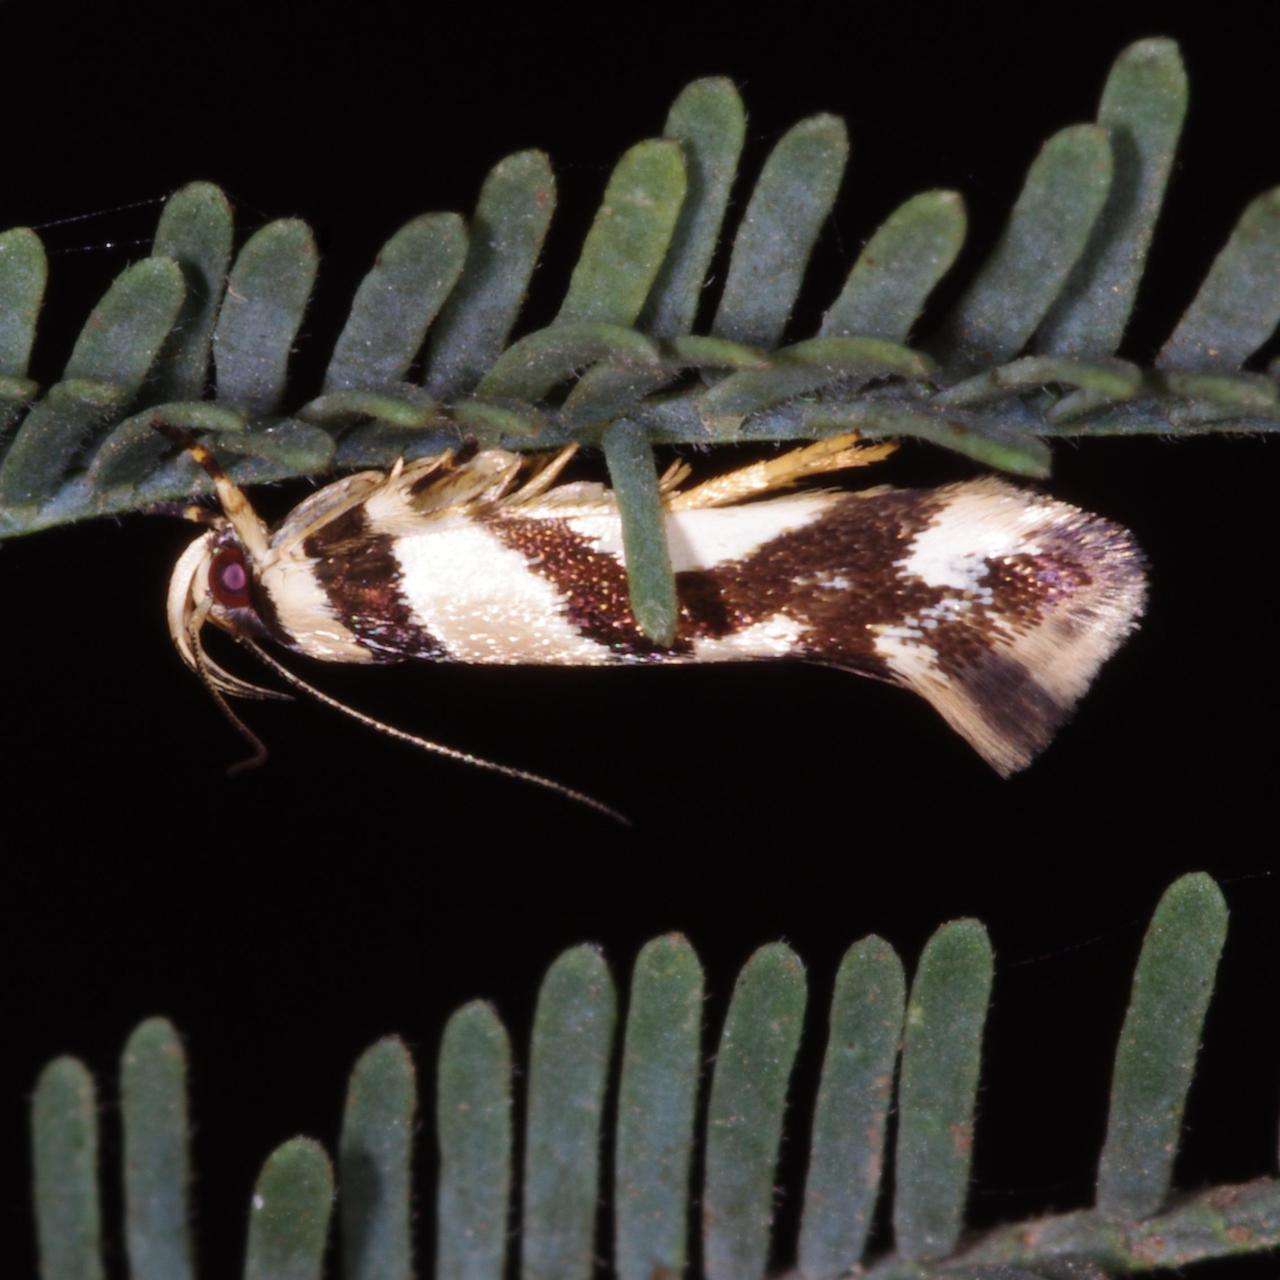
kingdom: Animalia
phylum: Arthropoda
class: Insecta
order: Lepidoptera
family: Cosmopterigidae
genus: Macrobathra
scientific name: Macrobathra desmotoma
